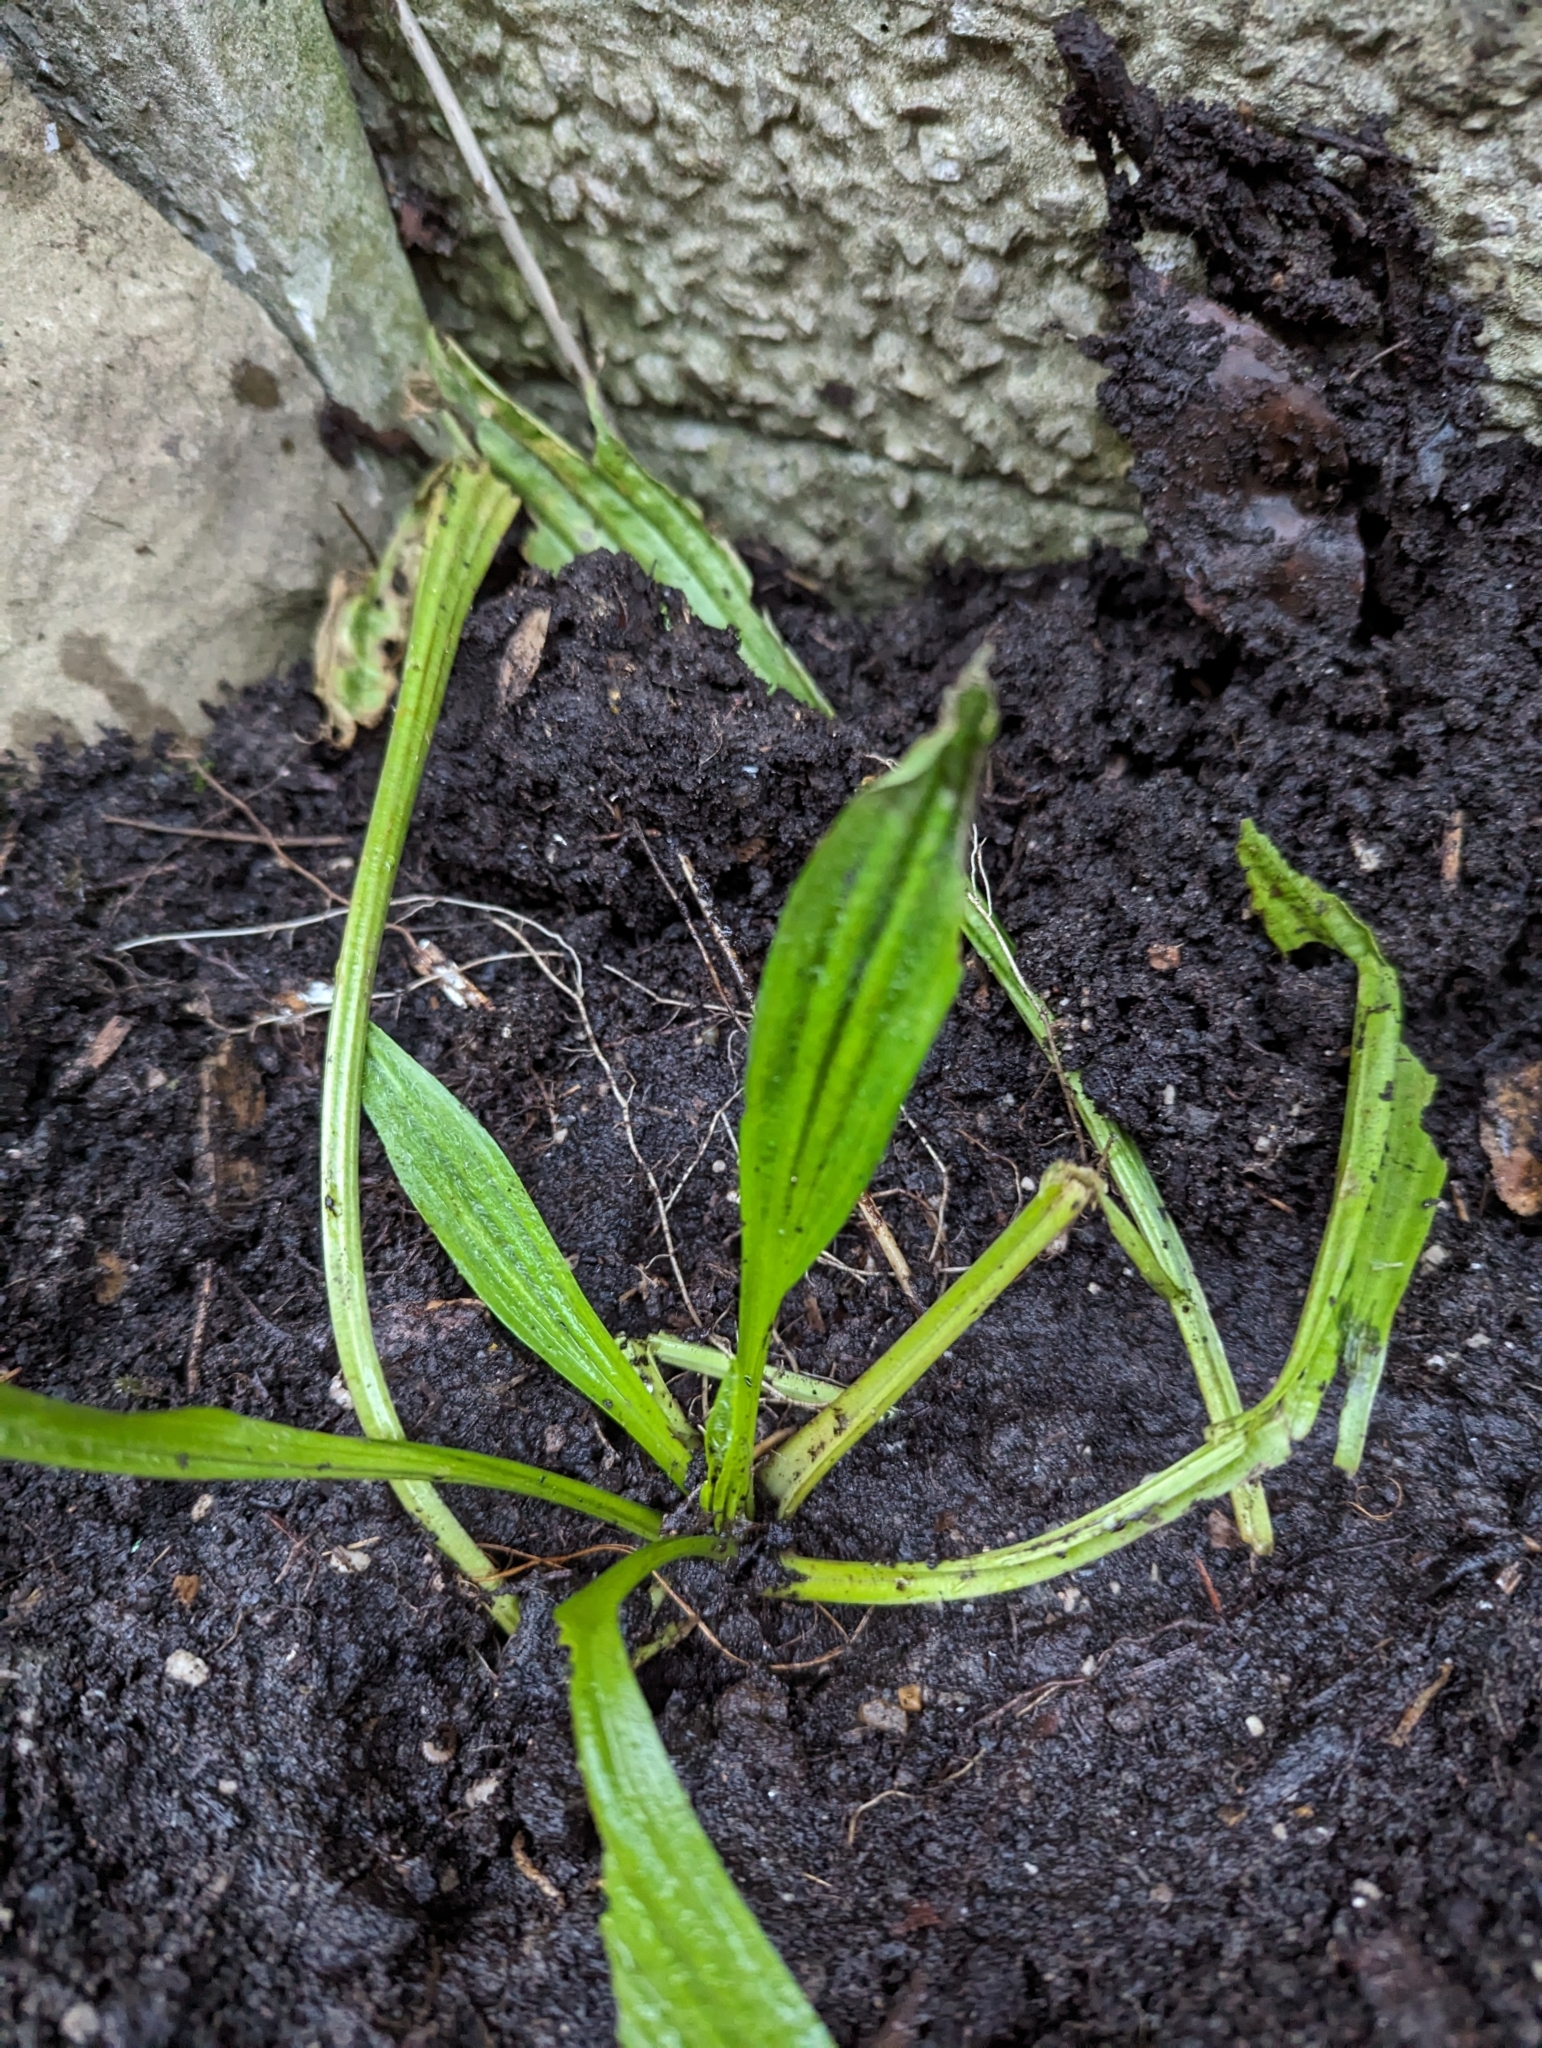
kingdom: Plantae
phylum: Tracheophyta
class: Magnoliopsida
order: Lamiales
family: Plantaginaceae
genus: Plantago
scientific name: Plantago lanceolata
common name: Ribwort plantain
